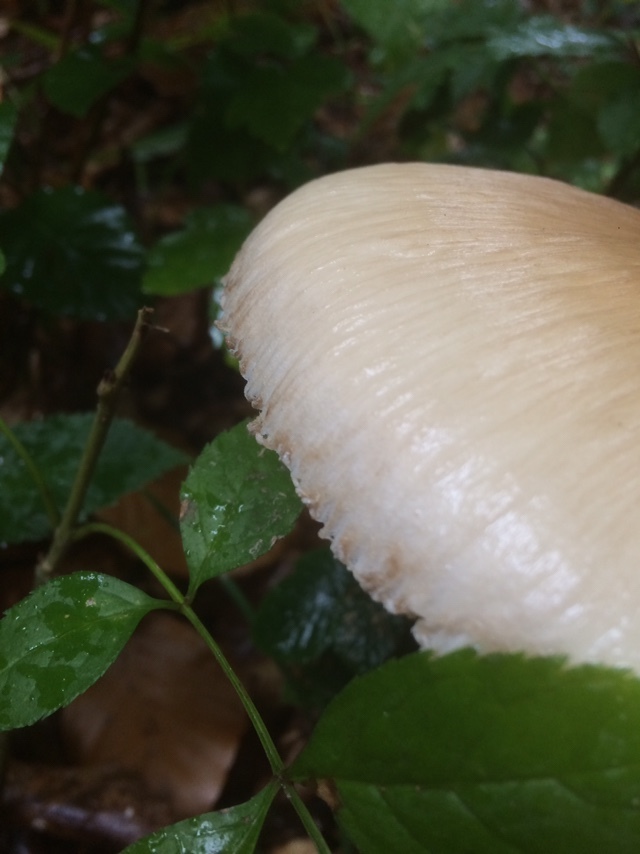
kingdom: Fungi
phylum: Basidiomycota
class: Agaricomycetes
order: Agaricales
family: Agaricaceae
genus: Macrolepiota
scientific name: Macrolepiota procera
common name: Parasol
